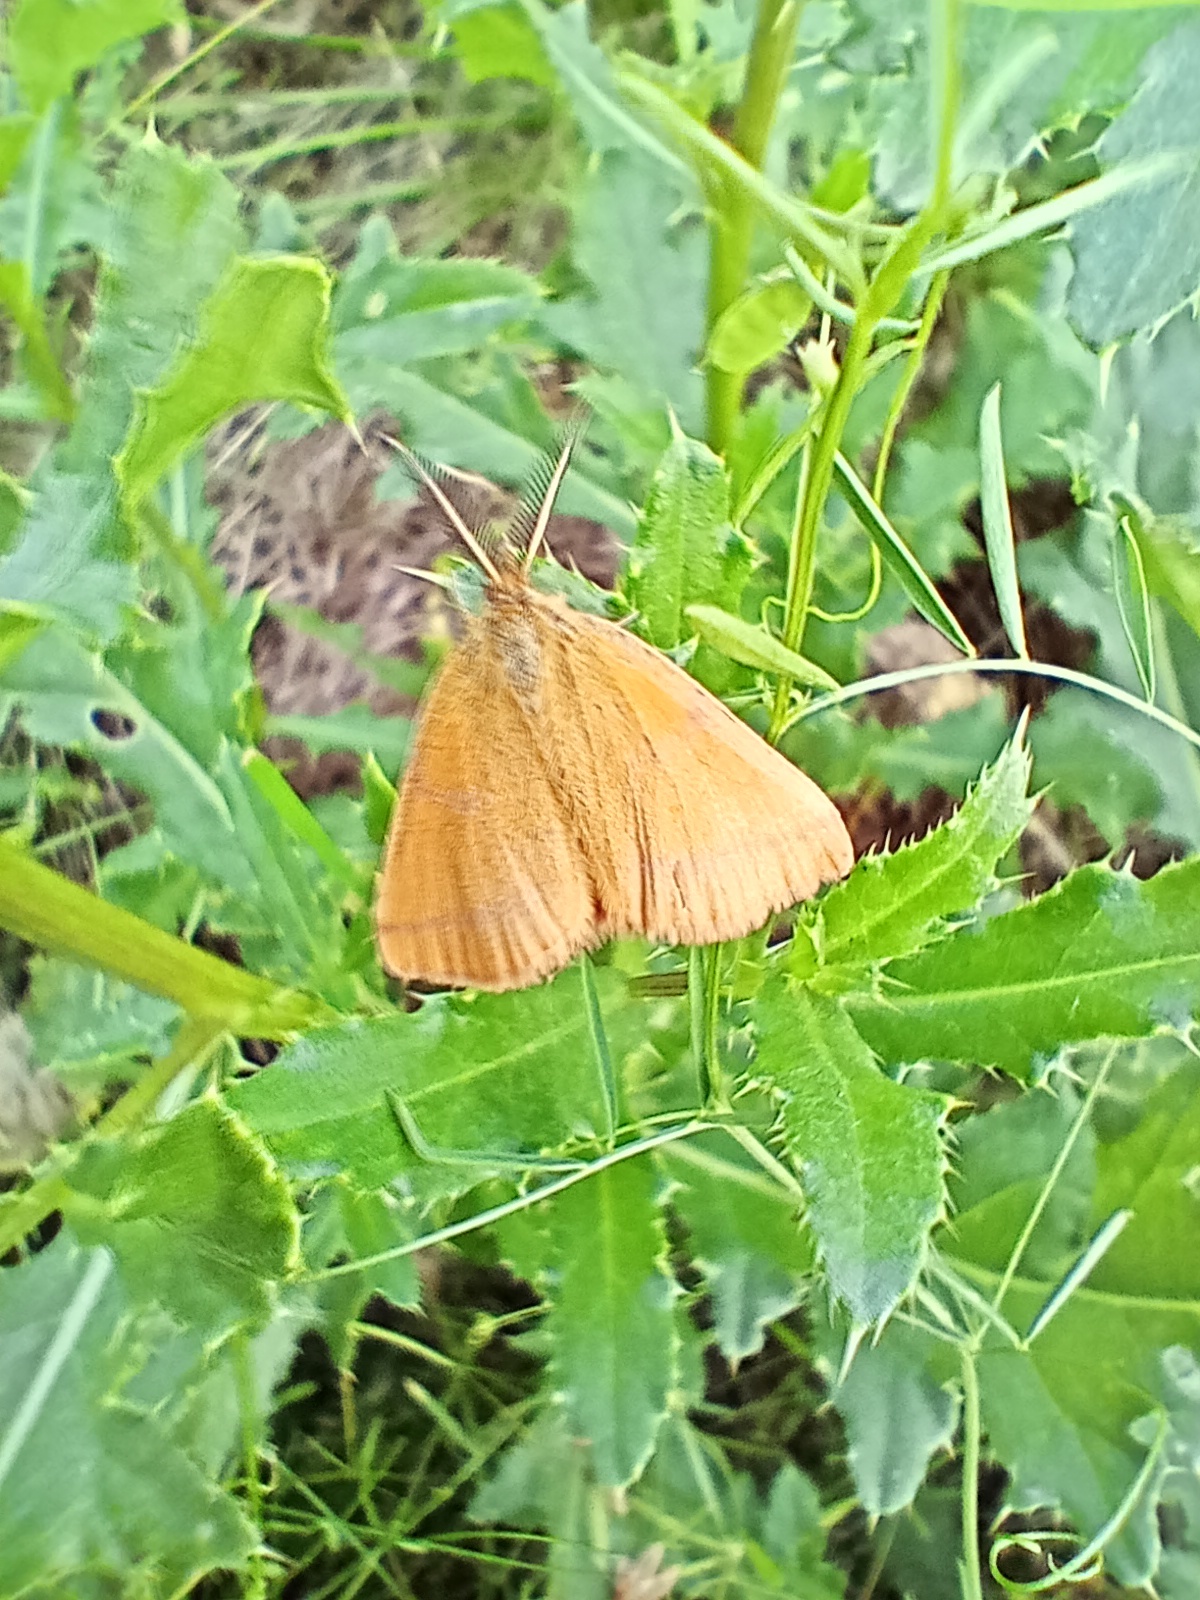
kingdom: Animalia
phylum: Arthropoda
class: Insecta
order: Lepidoptera
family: Geometridae
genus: Lythria
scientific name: Lythria purpuraria
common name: Purple-barred yellow
